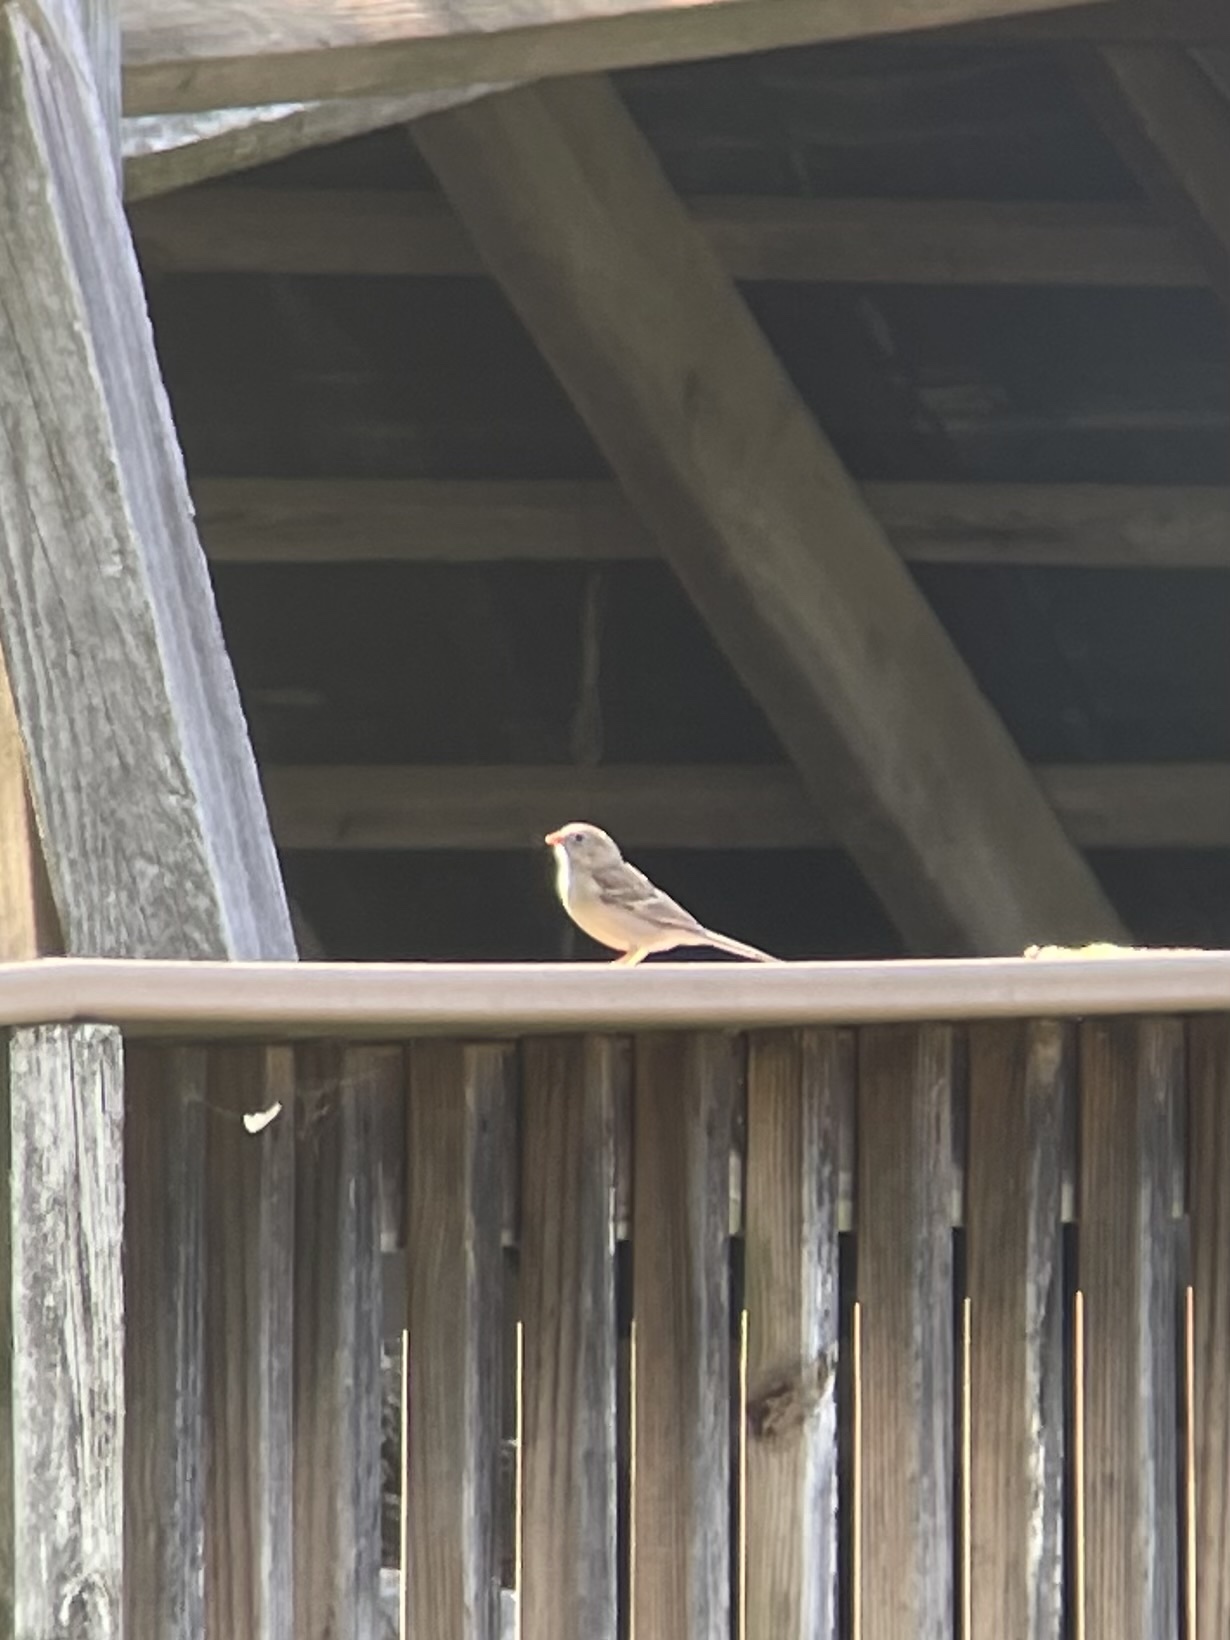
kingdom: Animalia
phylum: Chordata
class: Aves
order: Passeriformes
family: Passerellidae
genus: Spizella
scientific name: Spizella pusilla
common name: Field sparrow
